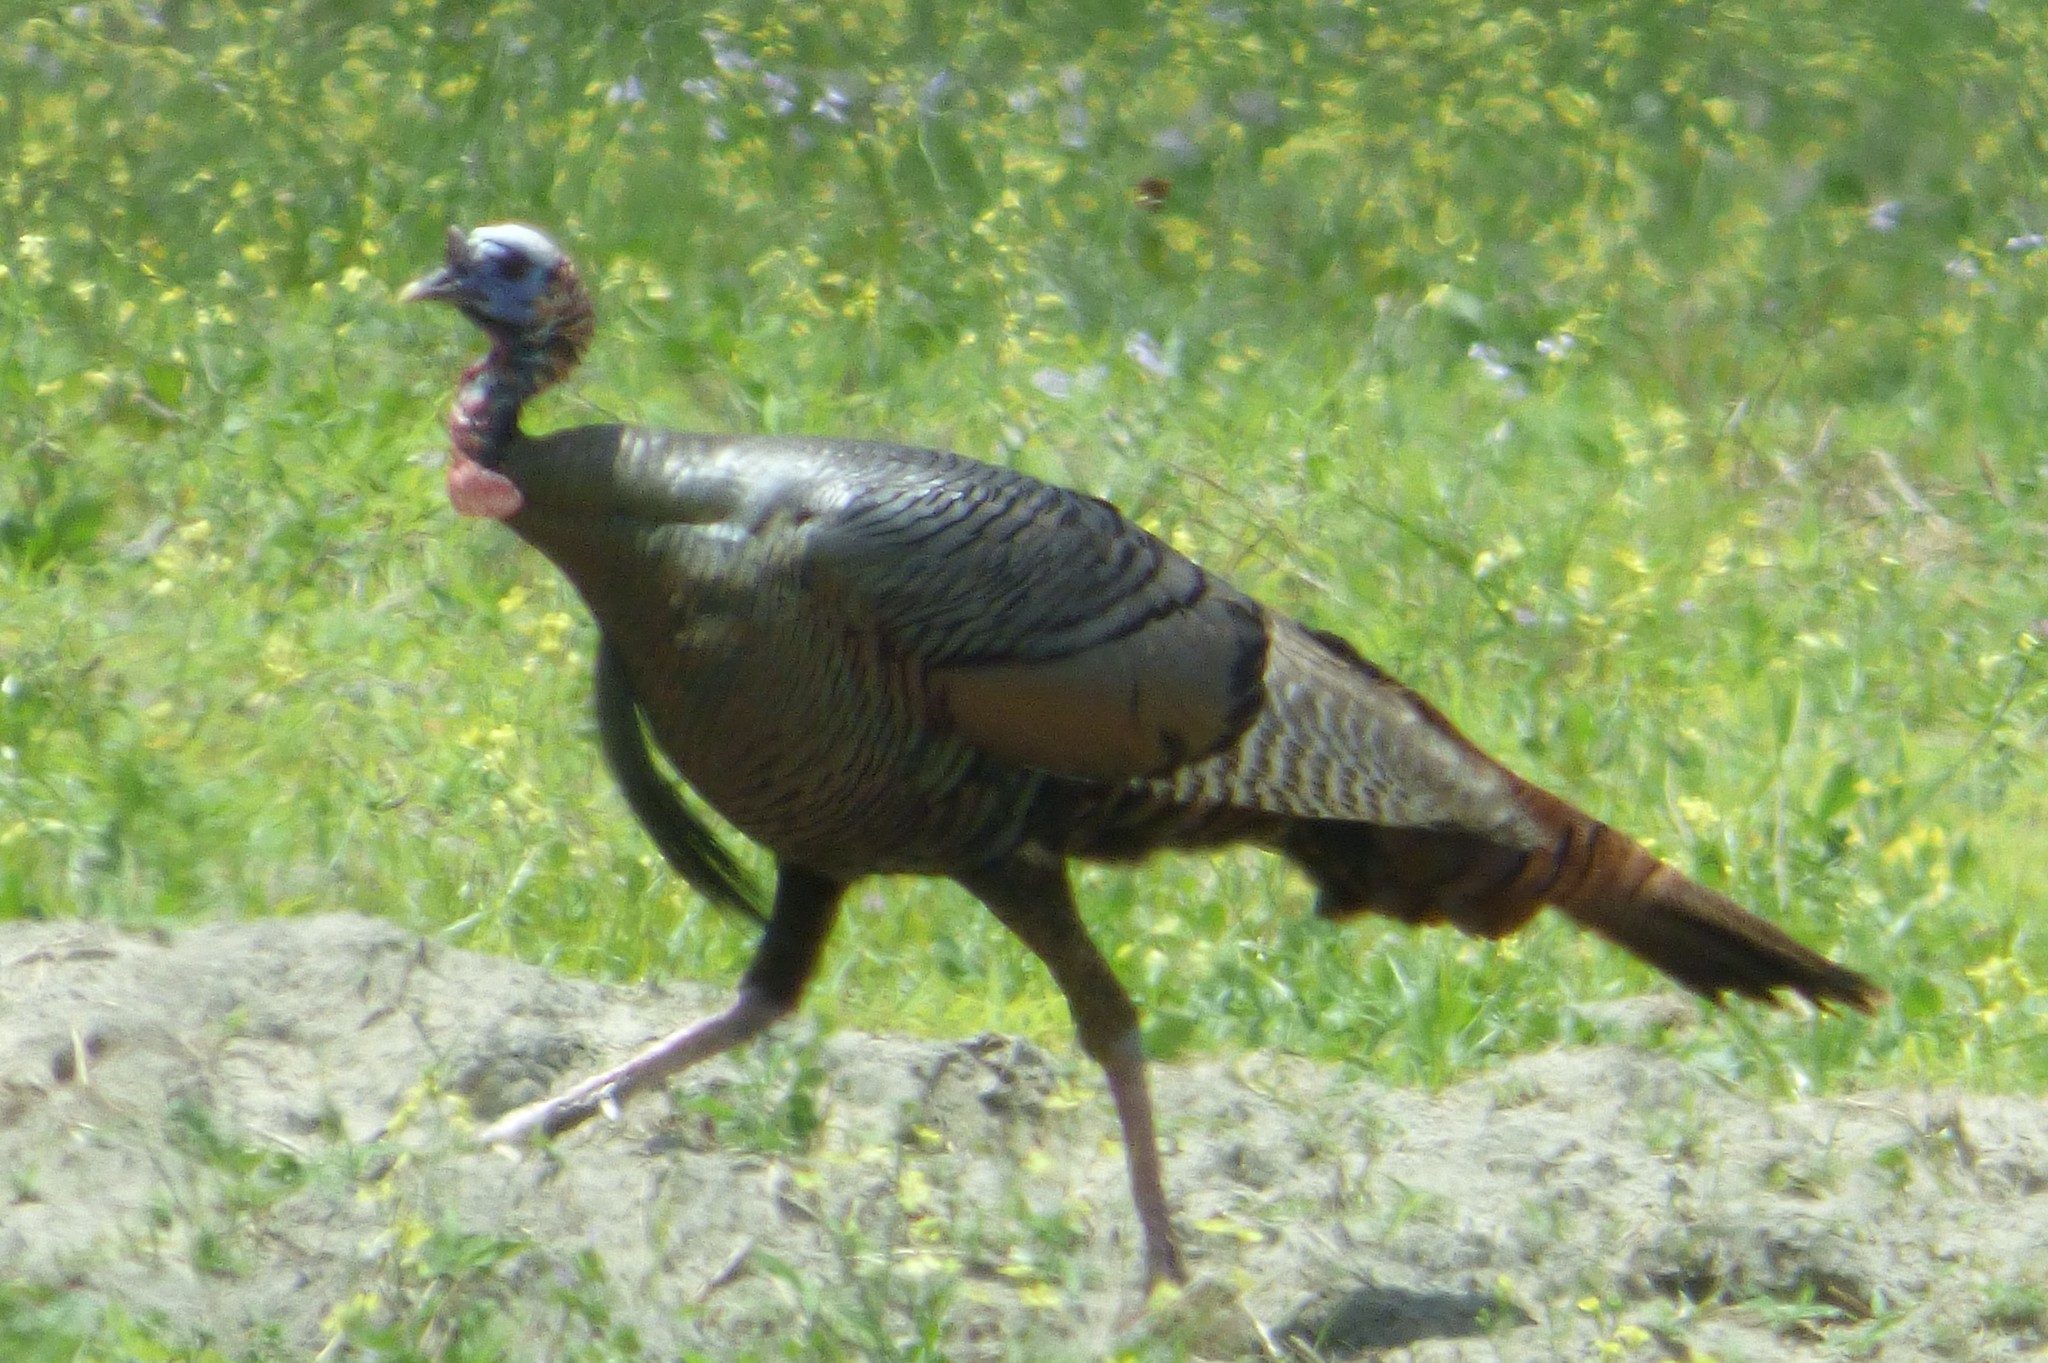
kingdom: Animalia
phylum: Chordata
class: Aves
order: Galliformes
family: Phasianidae
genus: Meleagris
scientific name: Meleagris gallopavo
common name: Wild turkey
